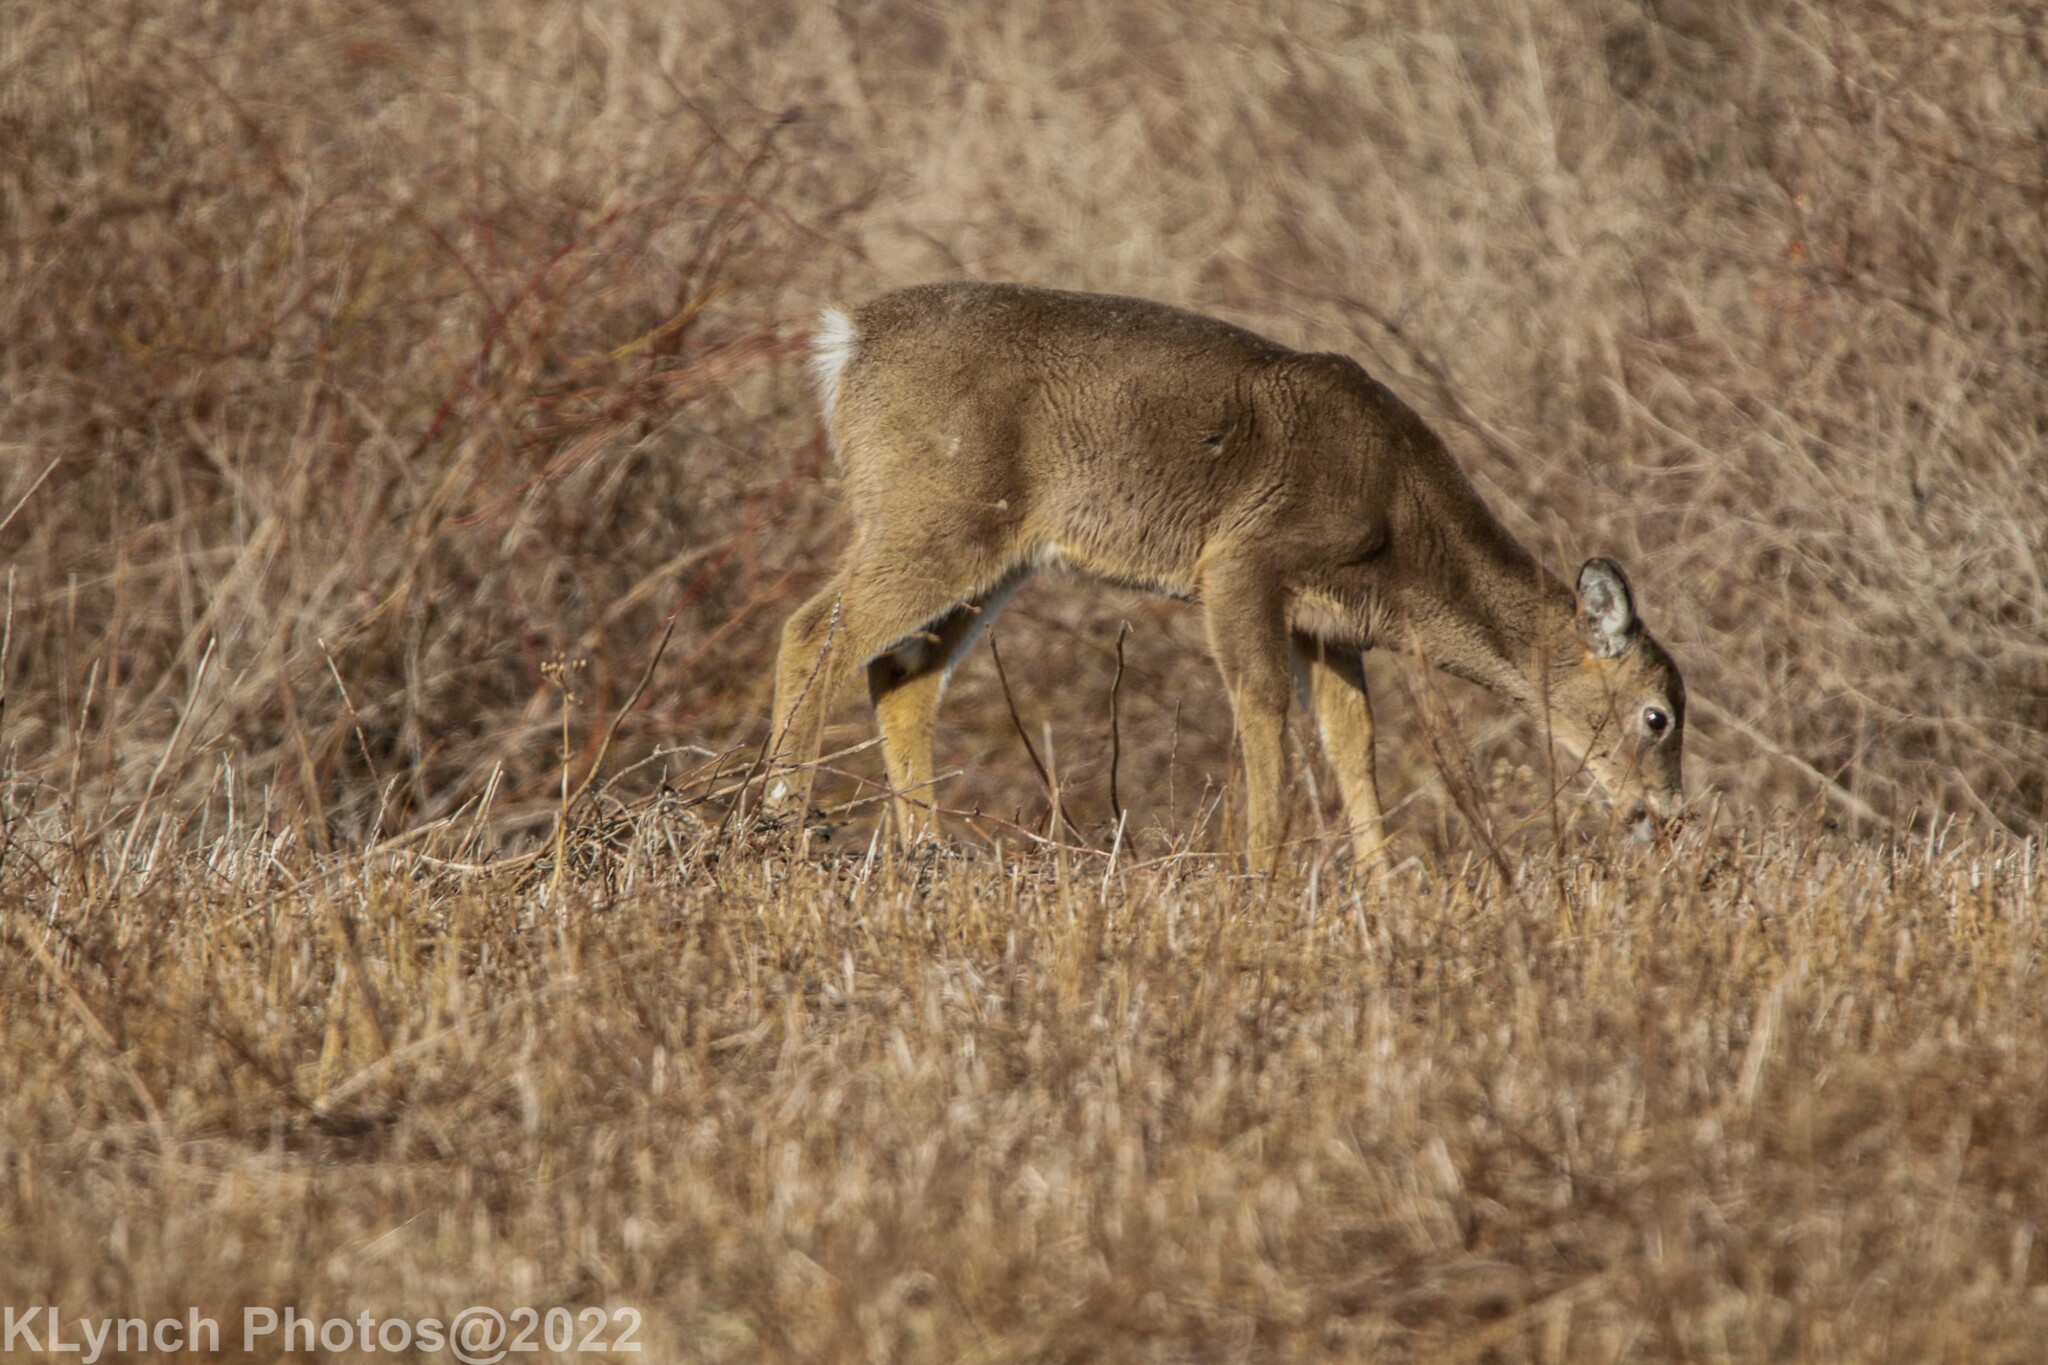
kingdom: Animalia
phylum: Chordata
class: Mammalia
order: Artiodactyla
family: Cervidae
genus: Odocoileus
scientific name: Odocoileus virginianus
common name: White-tailed deer
